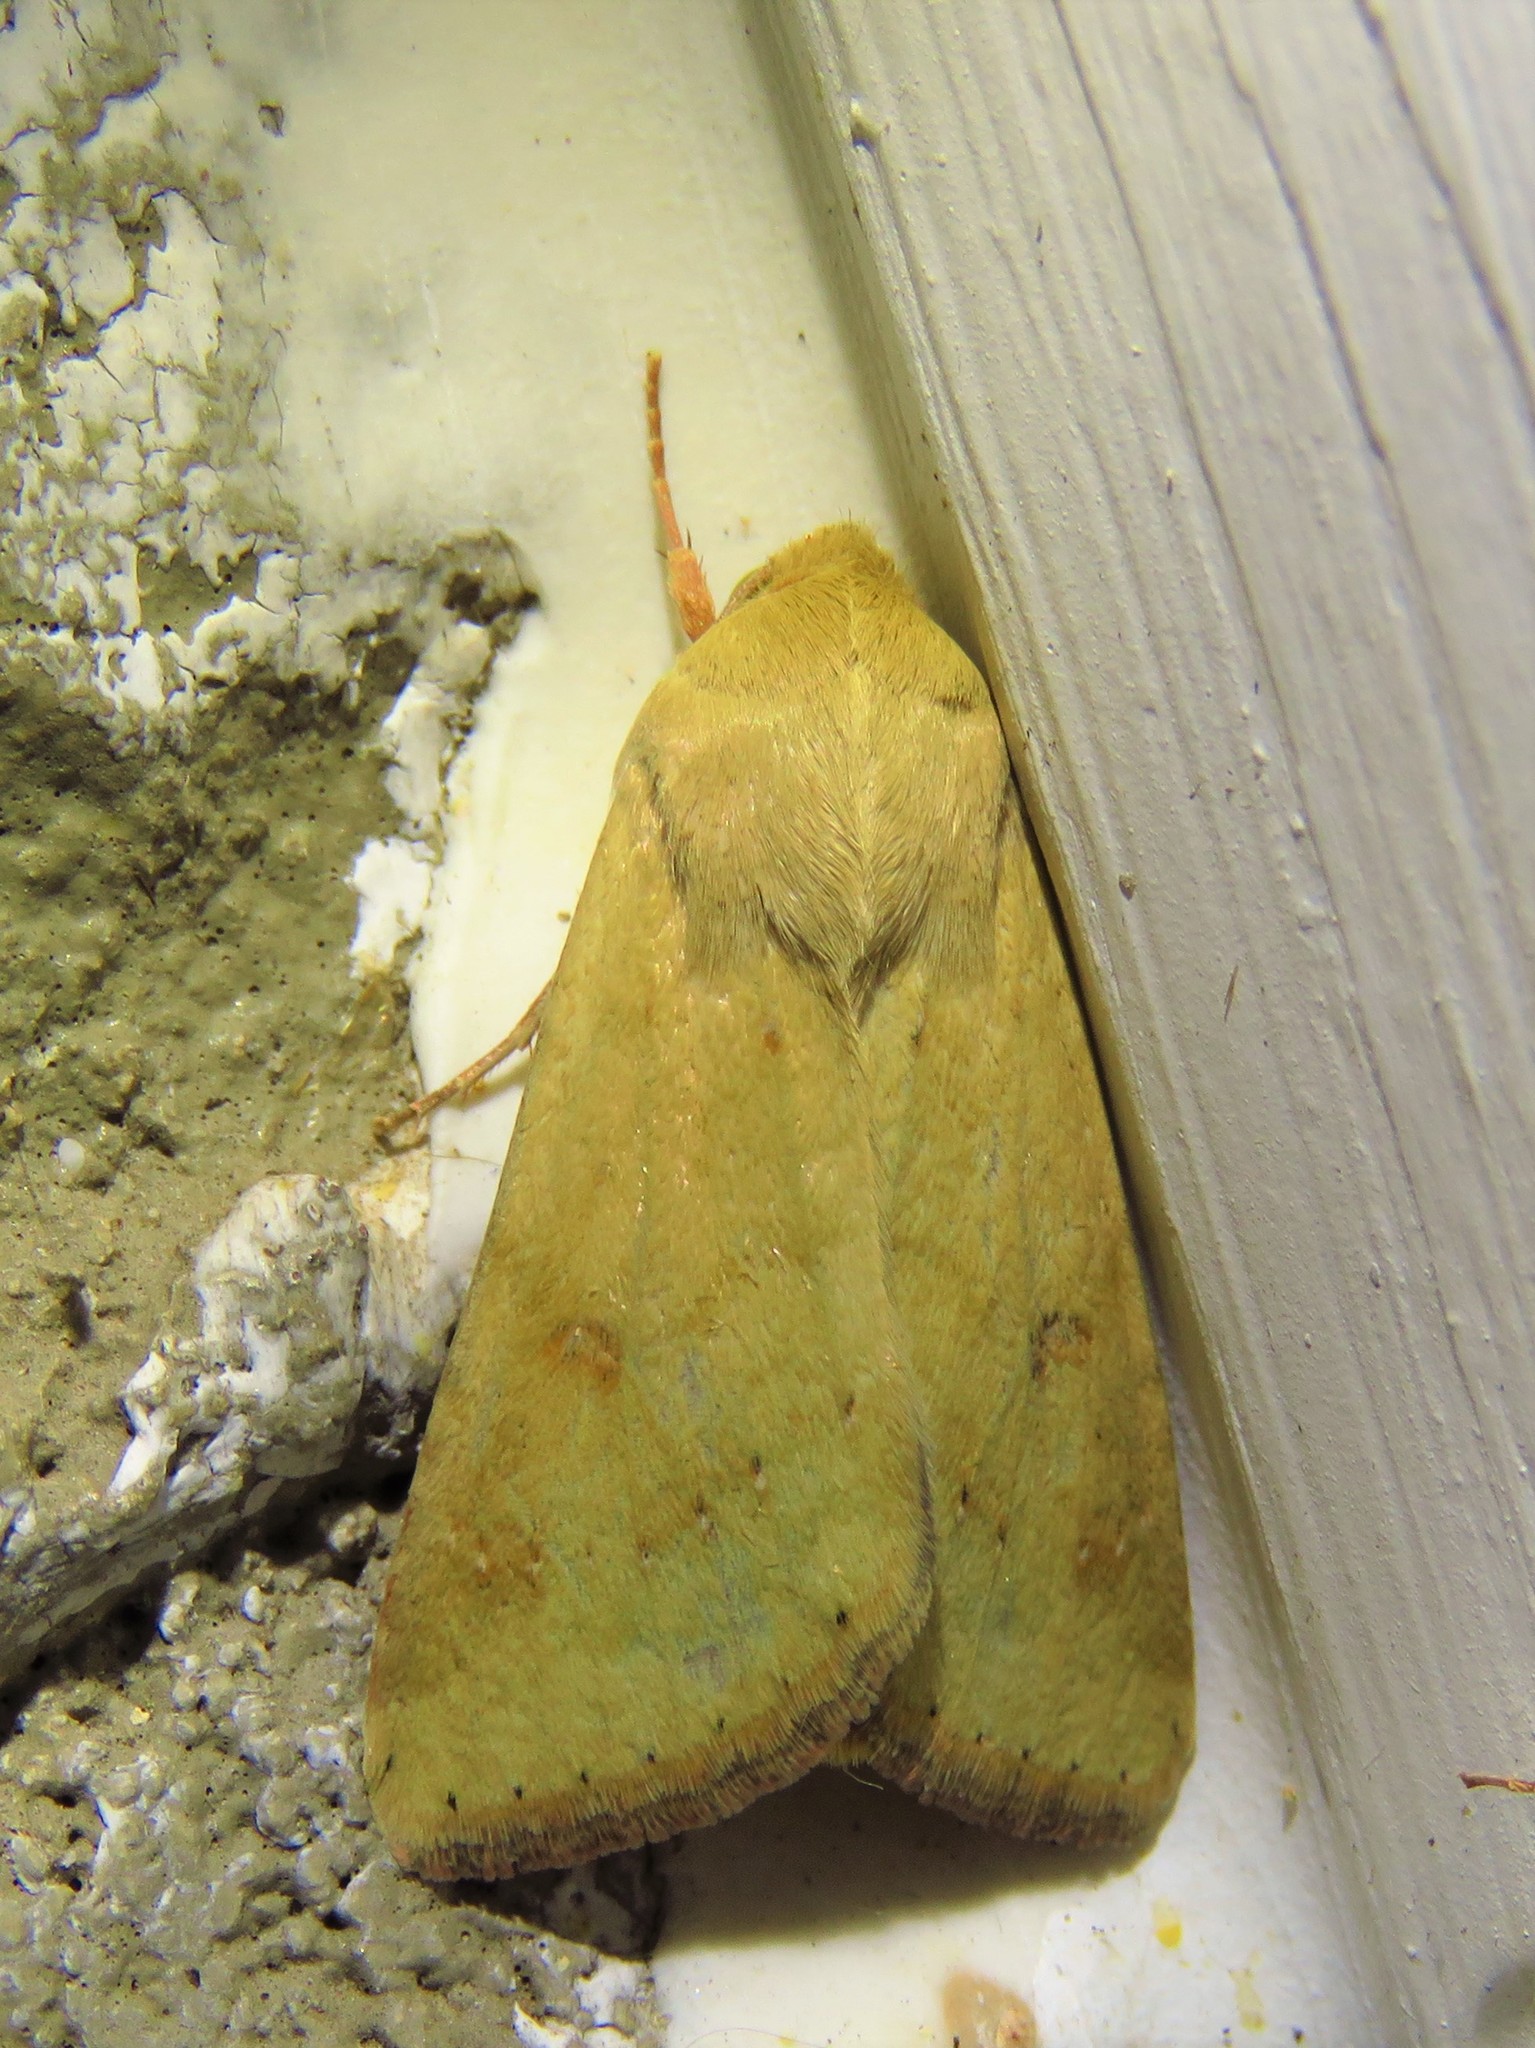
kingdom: Animalia
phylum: Arthropoda
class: Insecta
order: Lepidoptera
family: Noctuidae
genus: Helicoverpa
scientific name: Helicoverpa zea
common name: Bollworm
